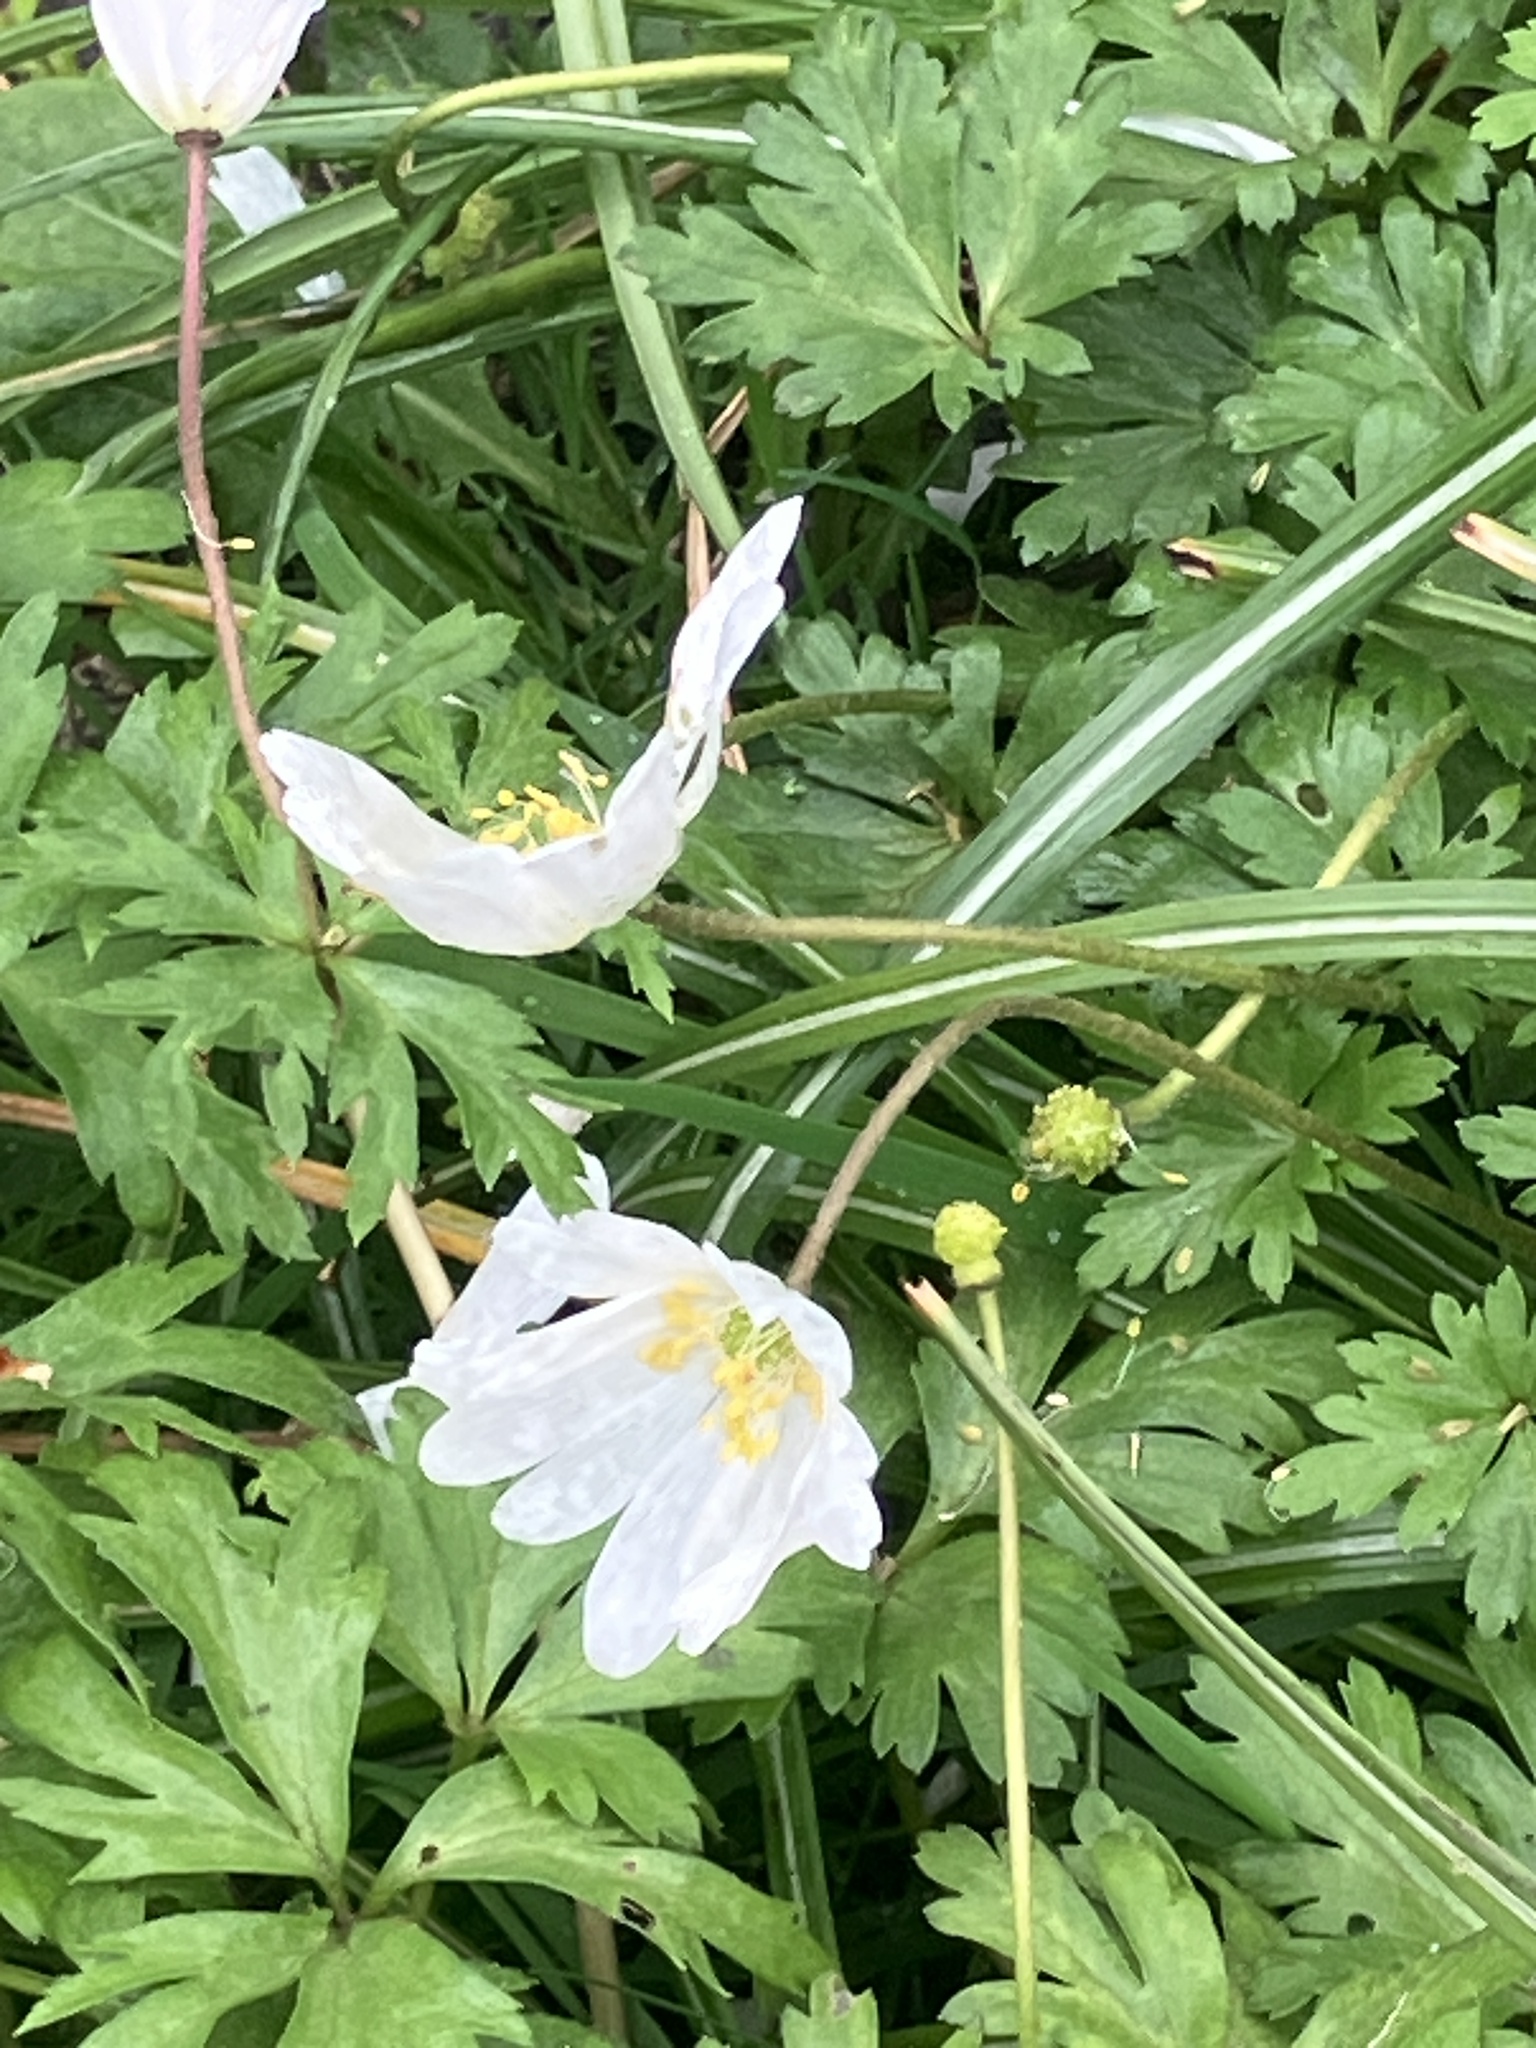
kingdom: Plantae
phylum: Tracheophyta
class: Magnoliopsida
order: Ranunculales
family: Ranunculaceae
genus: Anemone
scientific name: Anemone nemorosa
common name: Wood anemone
